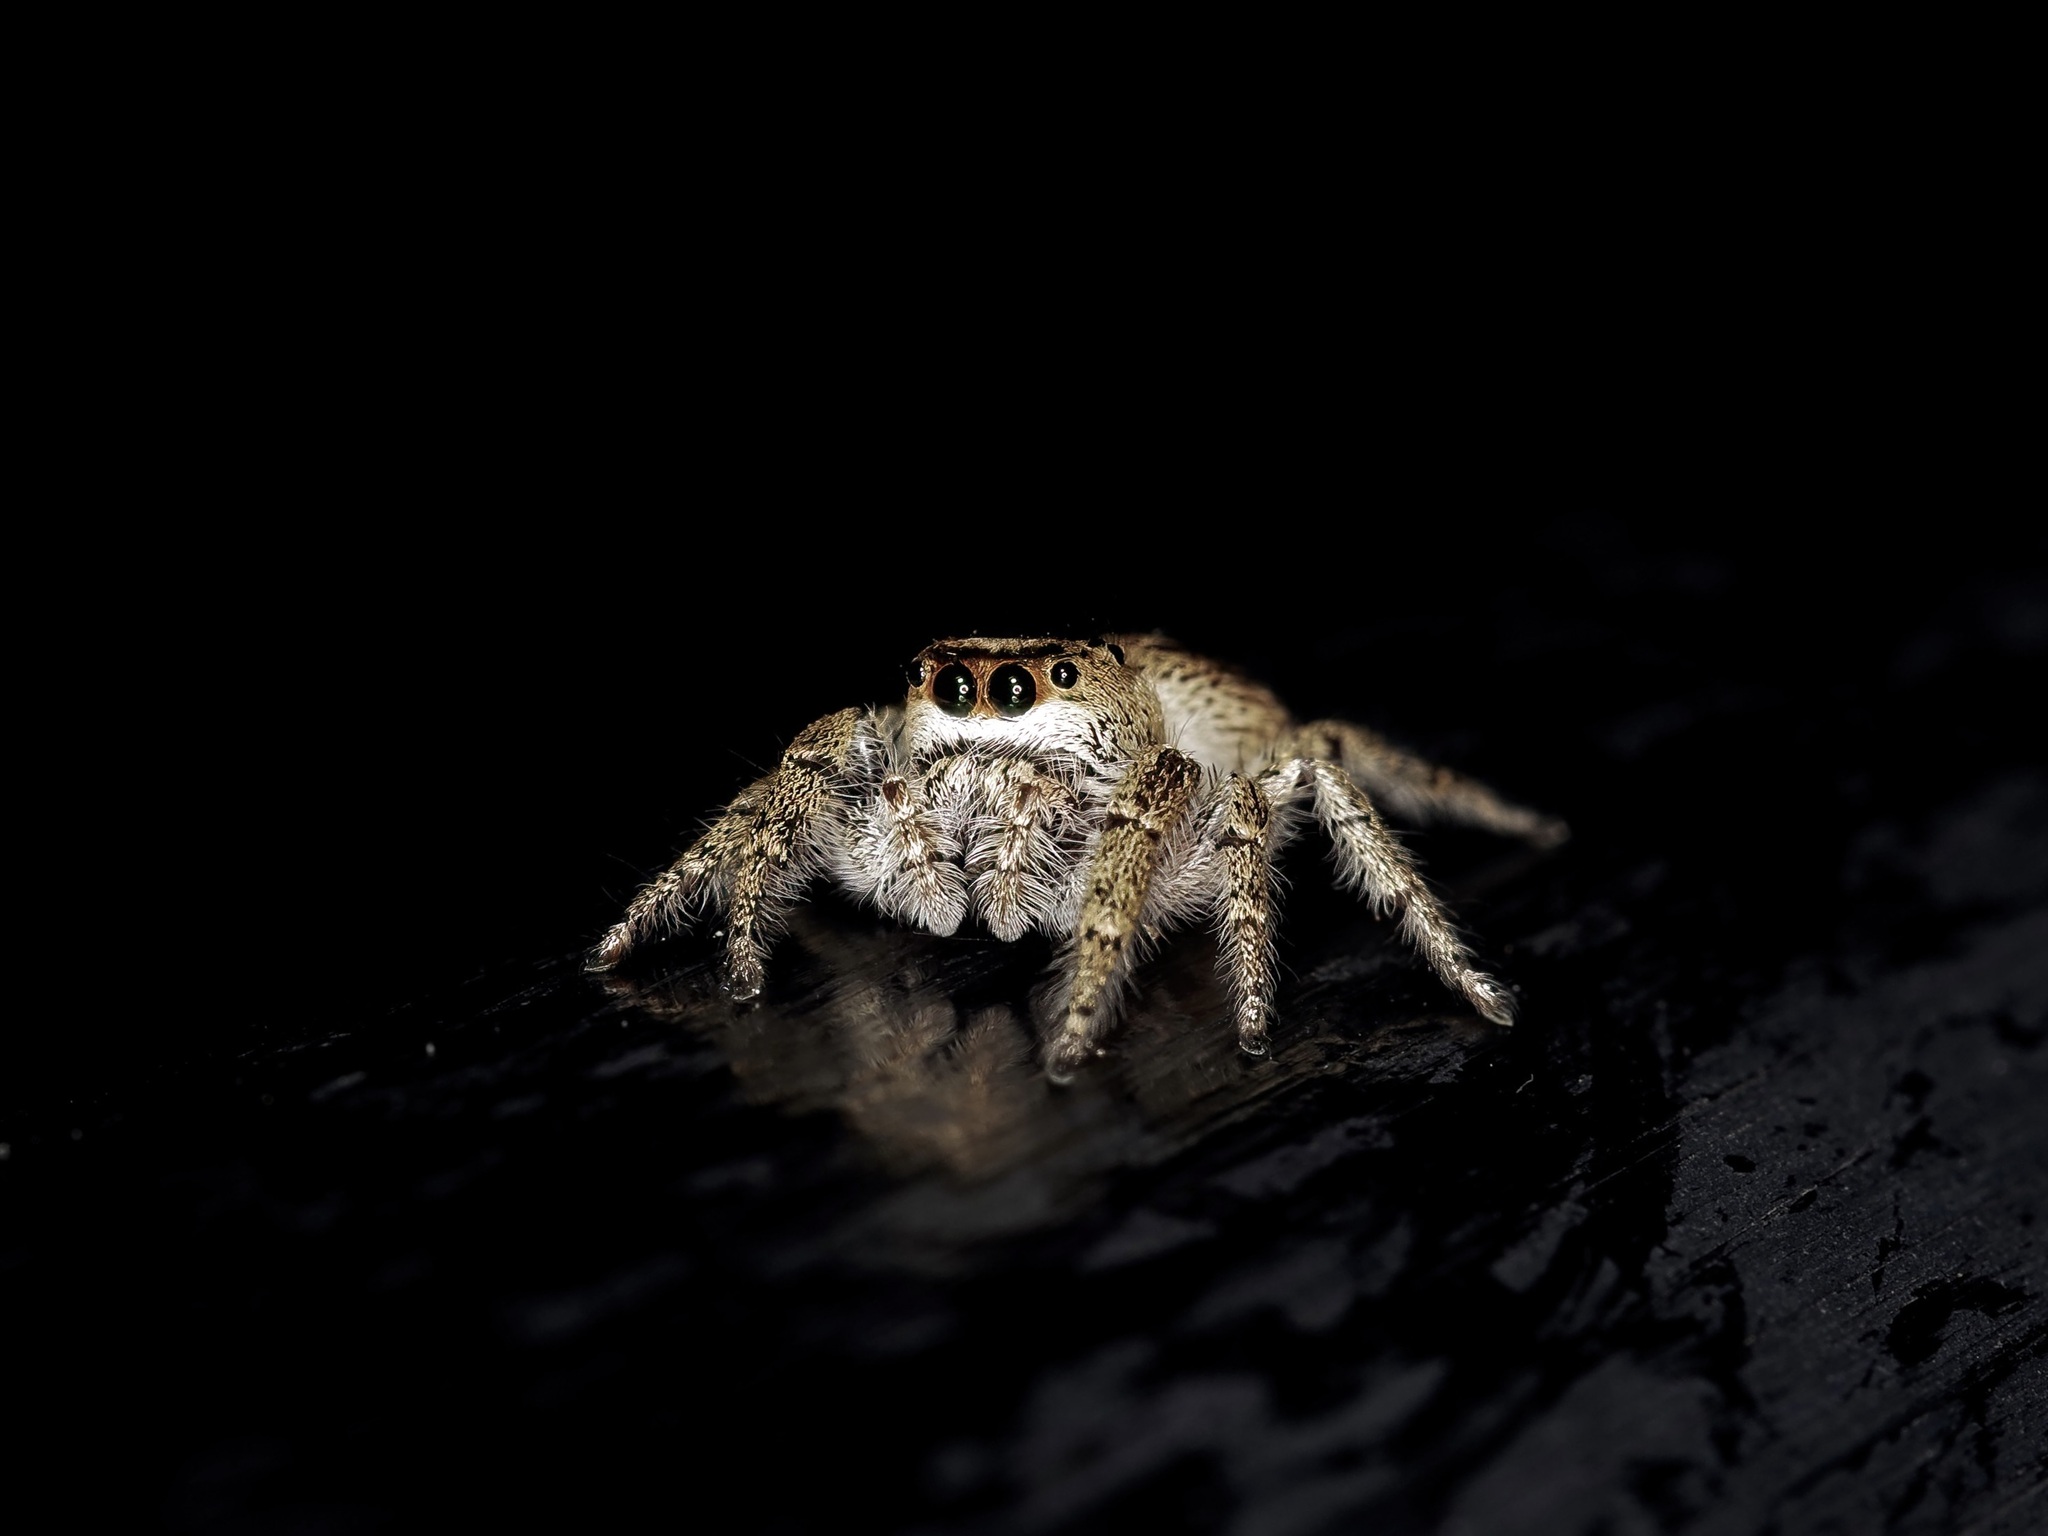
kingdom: Animalia
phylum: Arthropoda
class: Arachnida
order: Araneae
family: Salticidae
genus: Eris
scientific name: Eris militaris
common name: Bronze jumper
